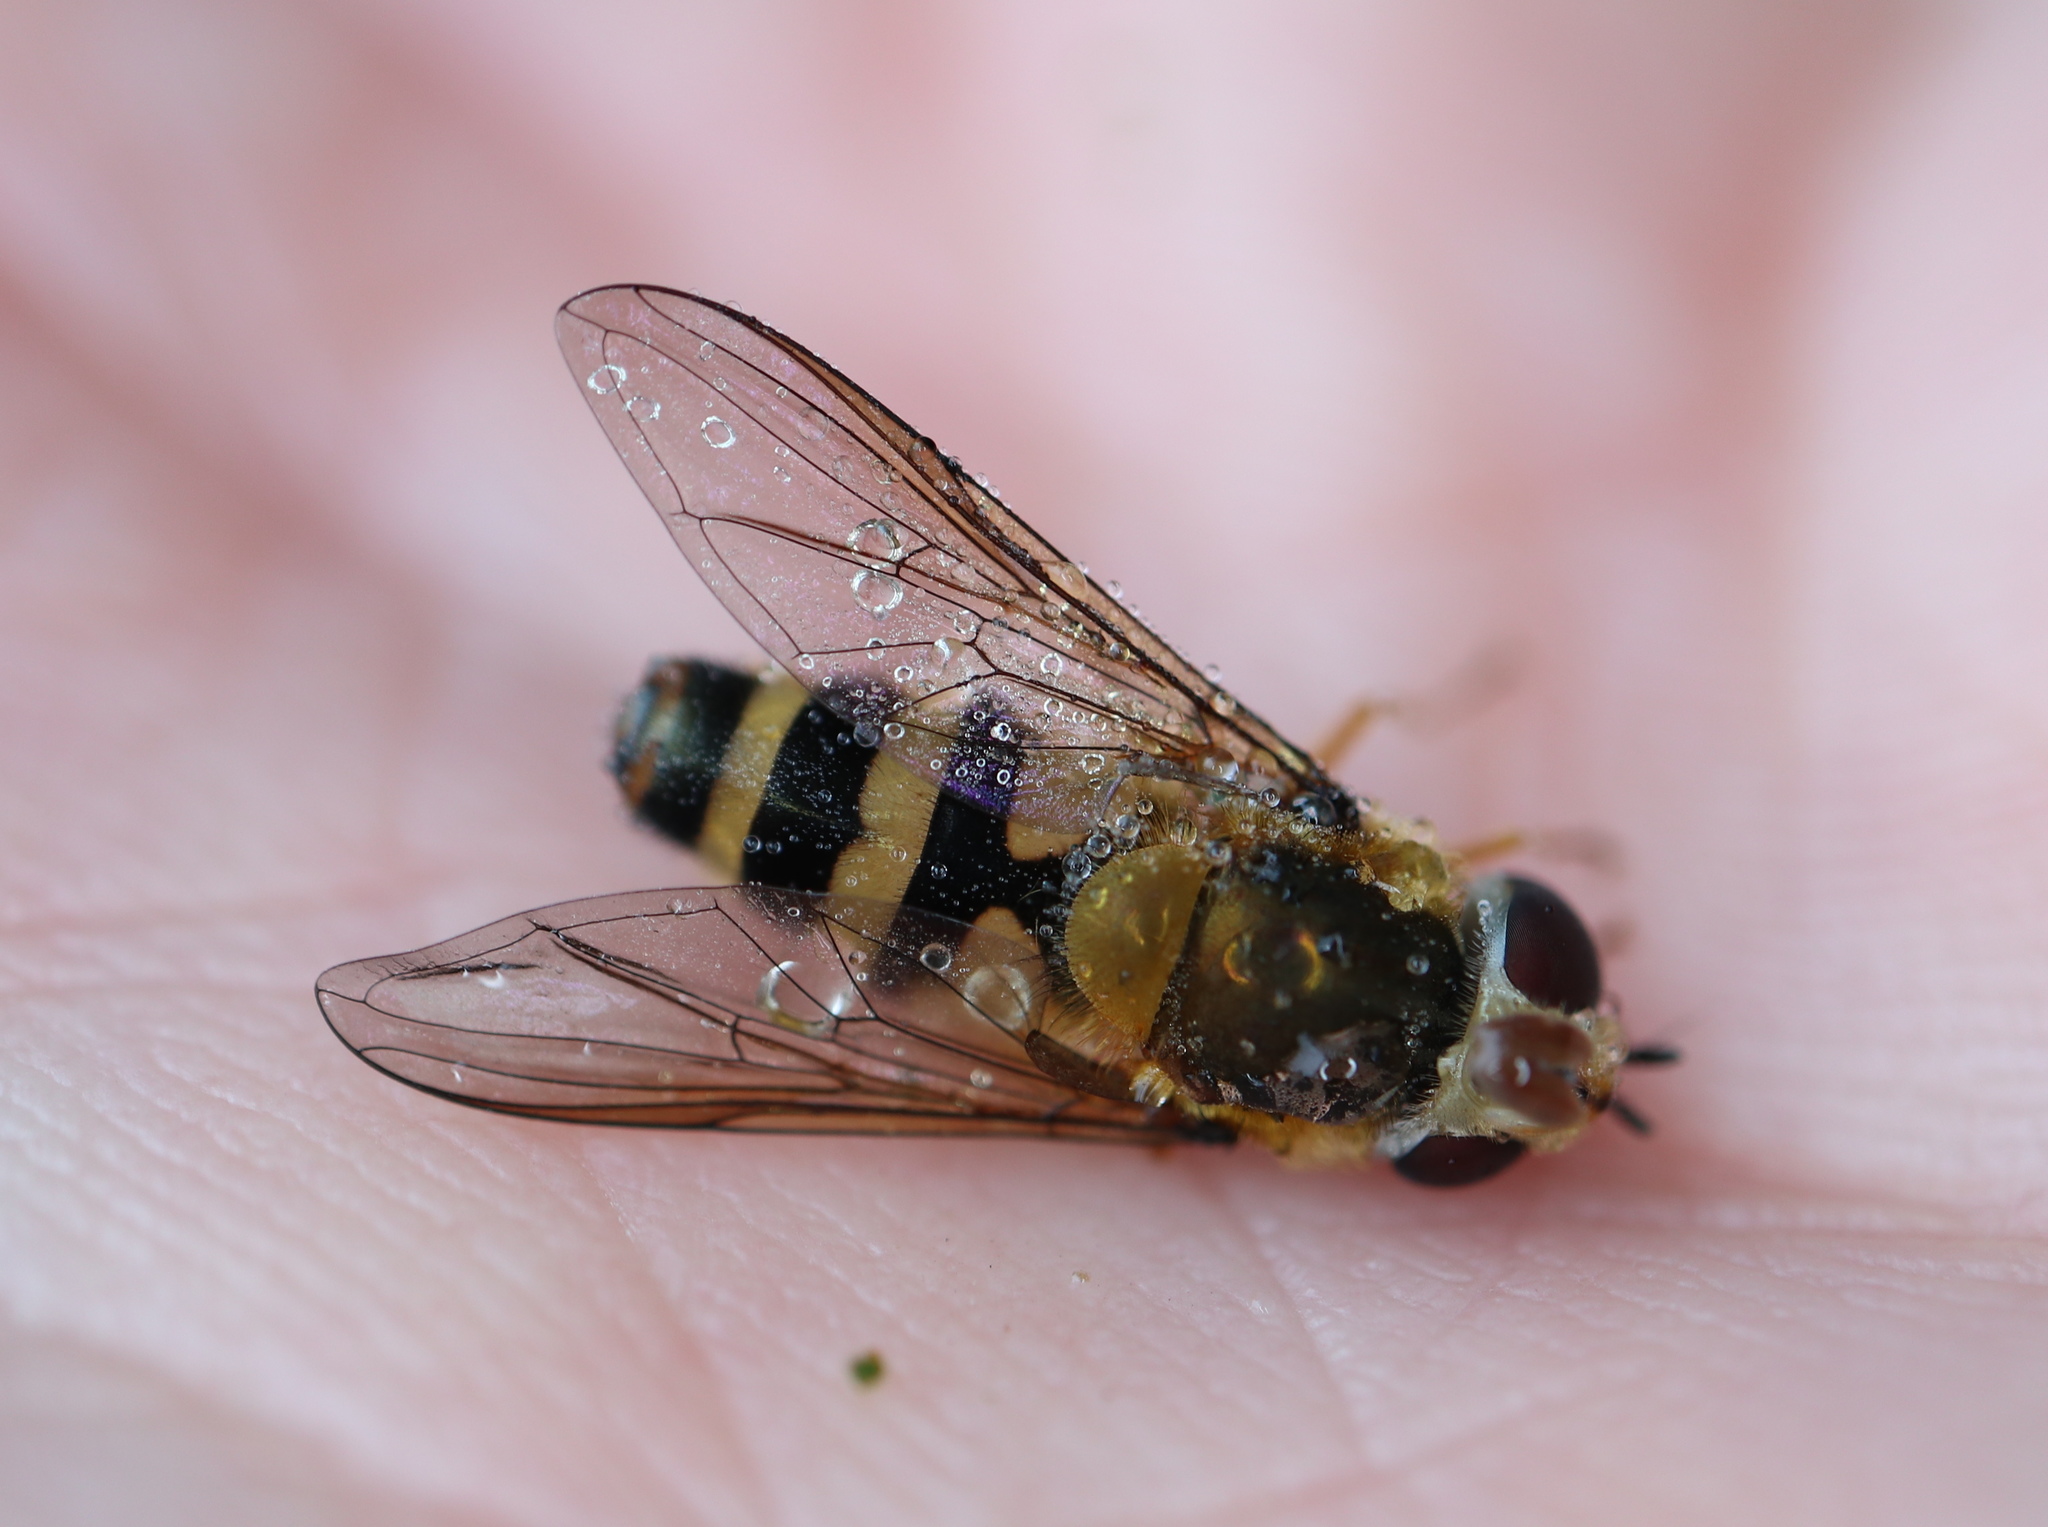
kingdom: Animalia
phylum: Arthropoda
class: Insecta
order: Diptera
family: Syrphidae
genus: Epistrophe
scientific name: Epistrophe grossulariae
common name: Black-horned smoothtail
